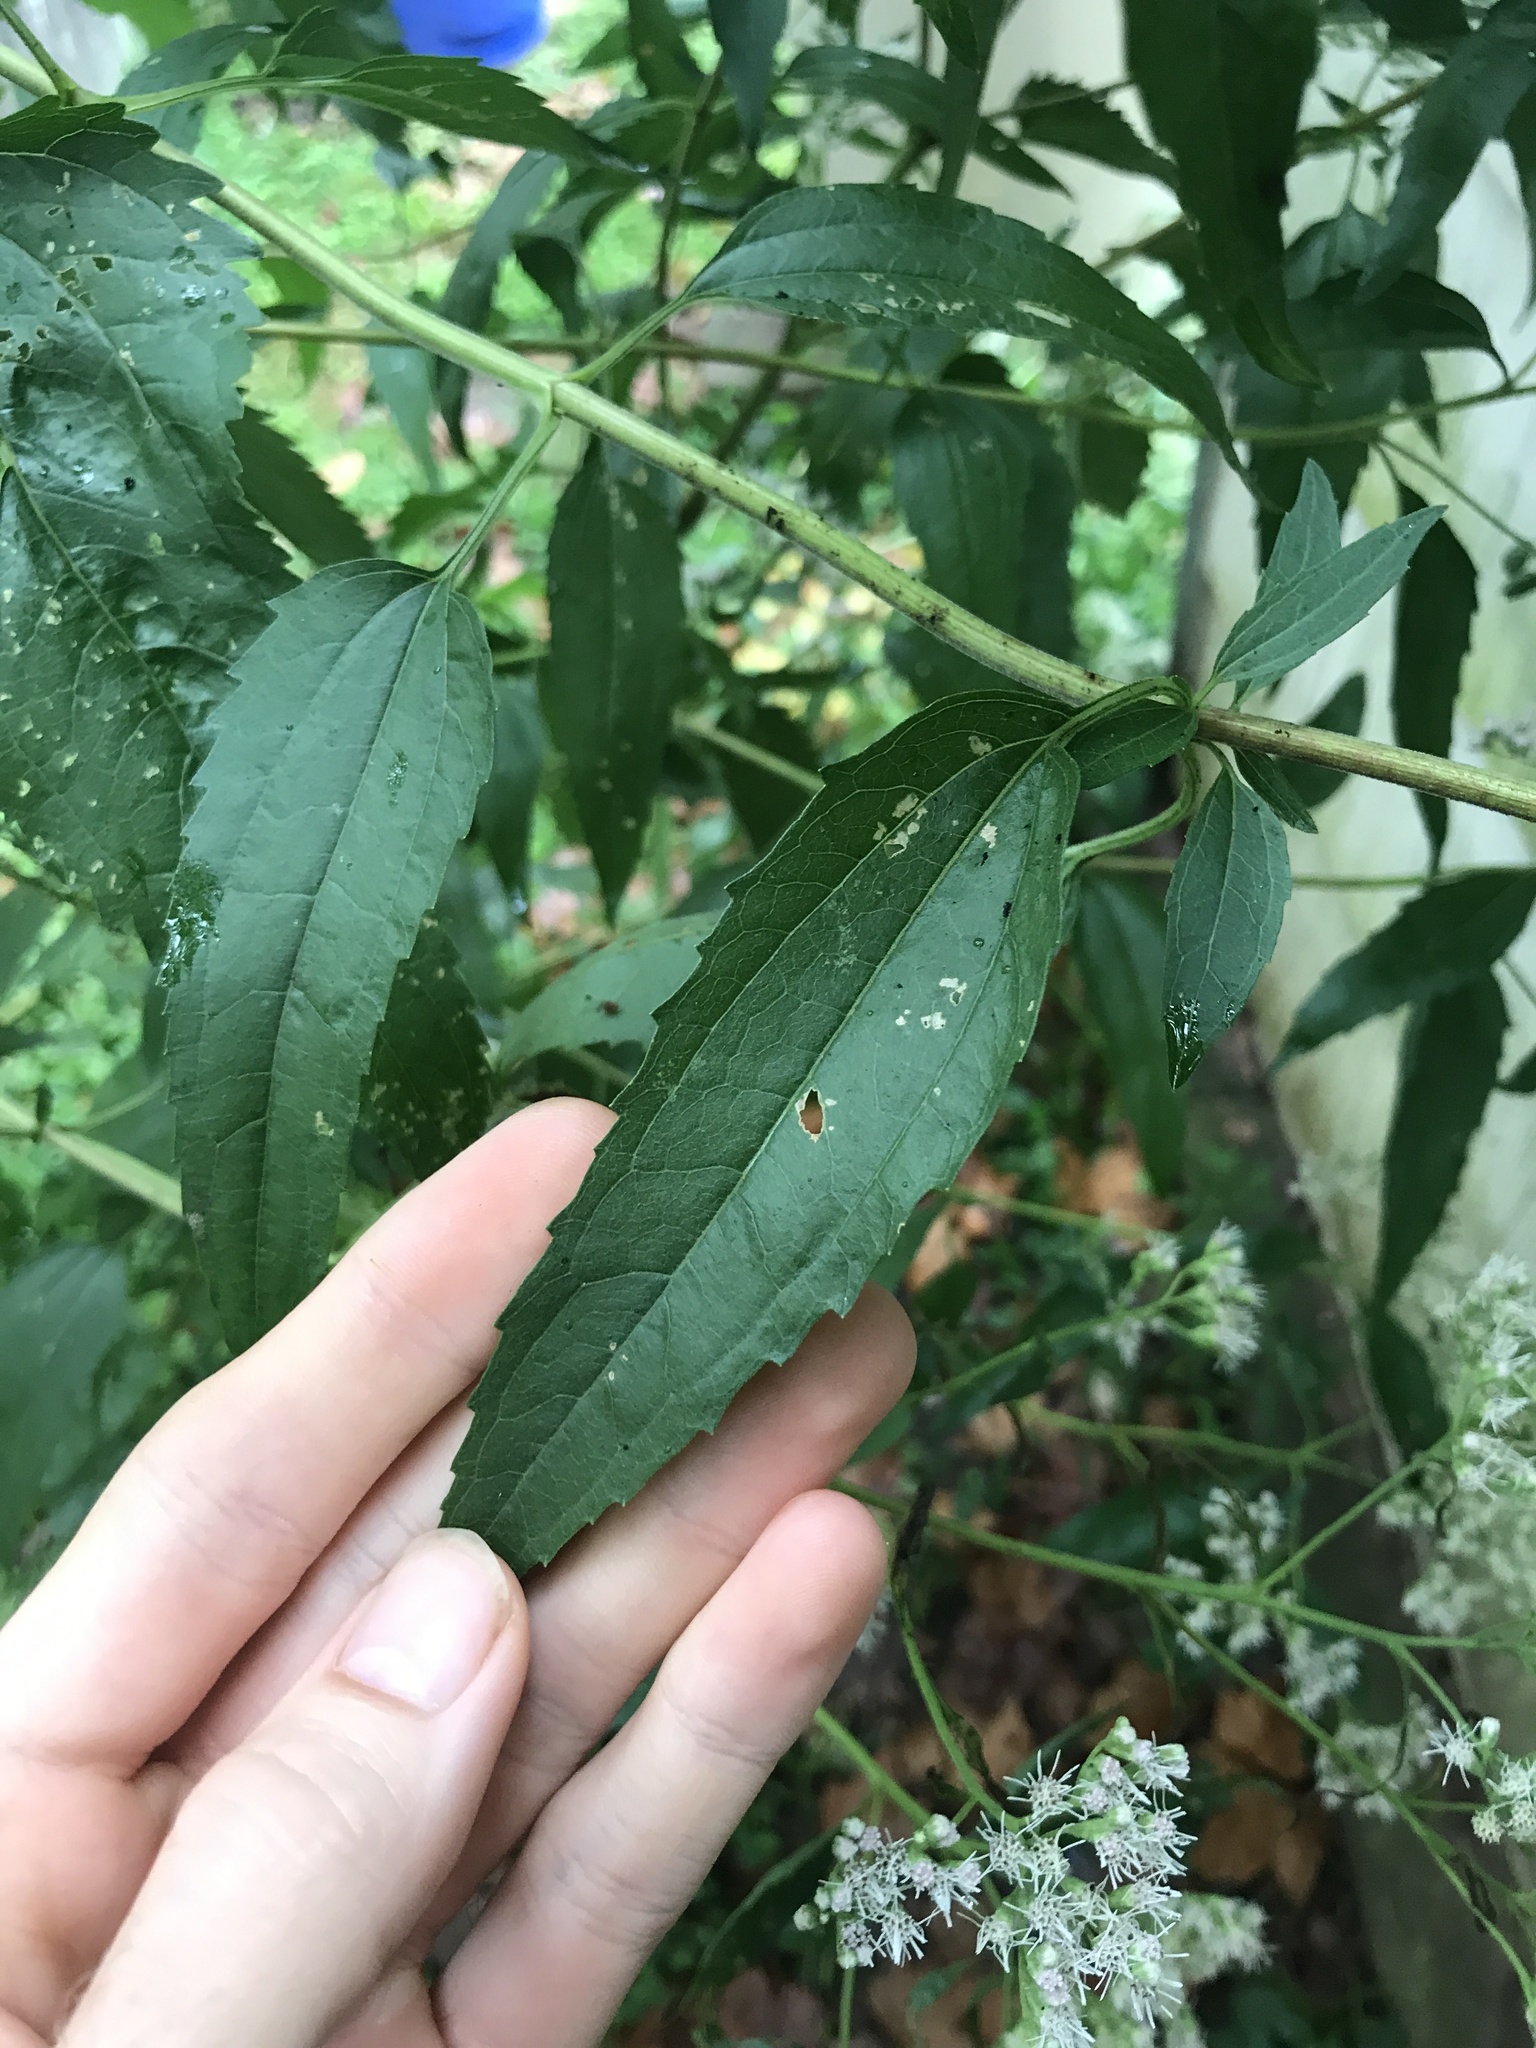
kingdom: Plantae
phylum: Tracheophyta
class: Magnoliopsida
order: Asterales
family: Asteraceae
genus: Eupatorium
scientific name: Eupatorium serotinum
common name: Late boneset
